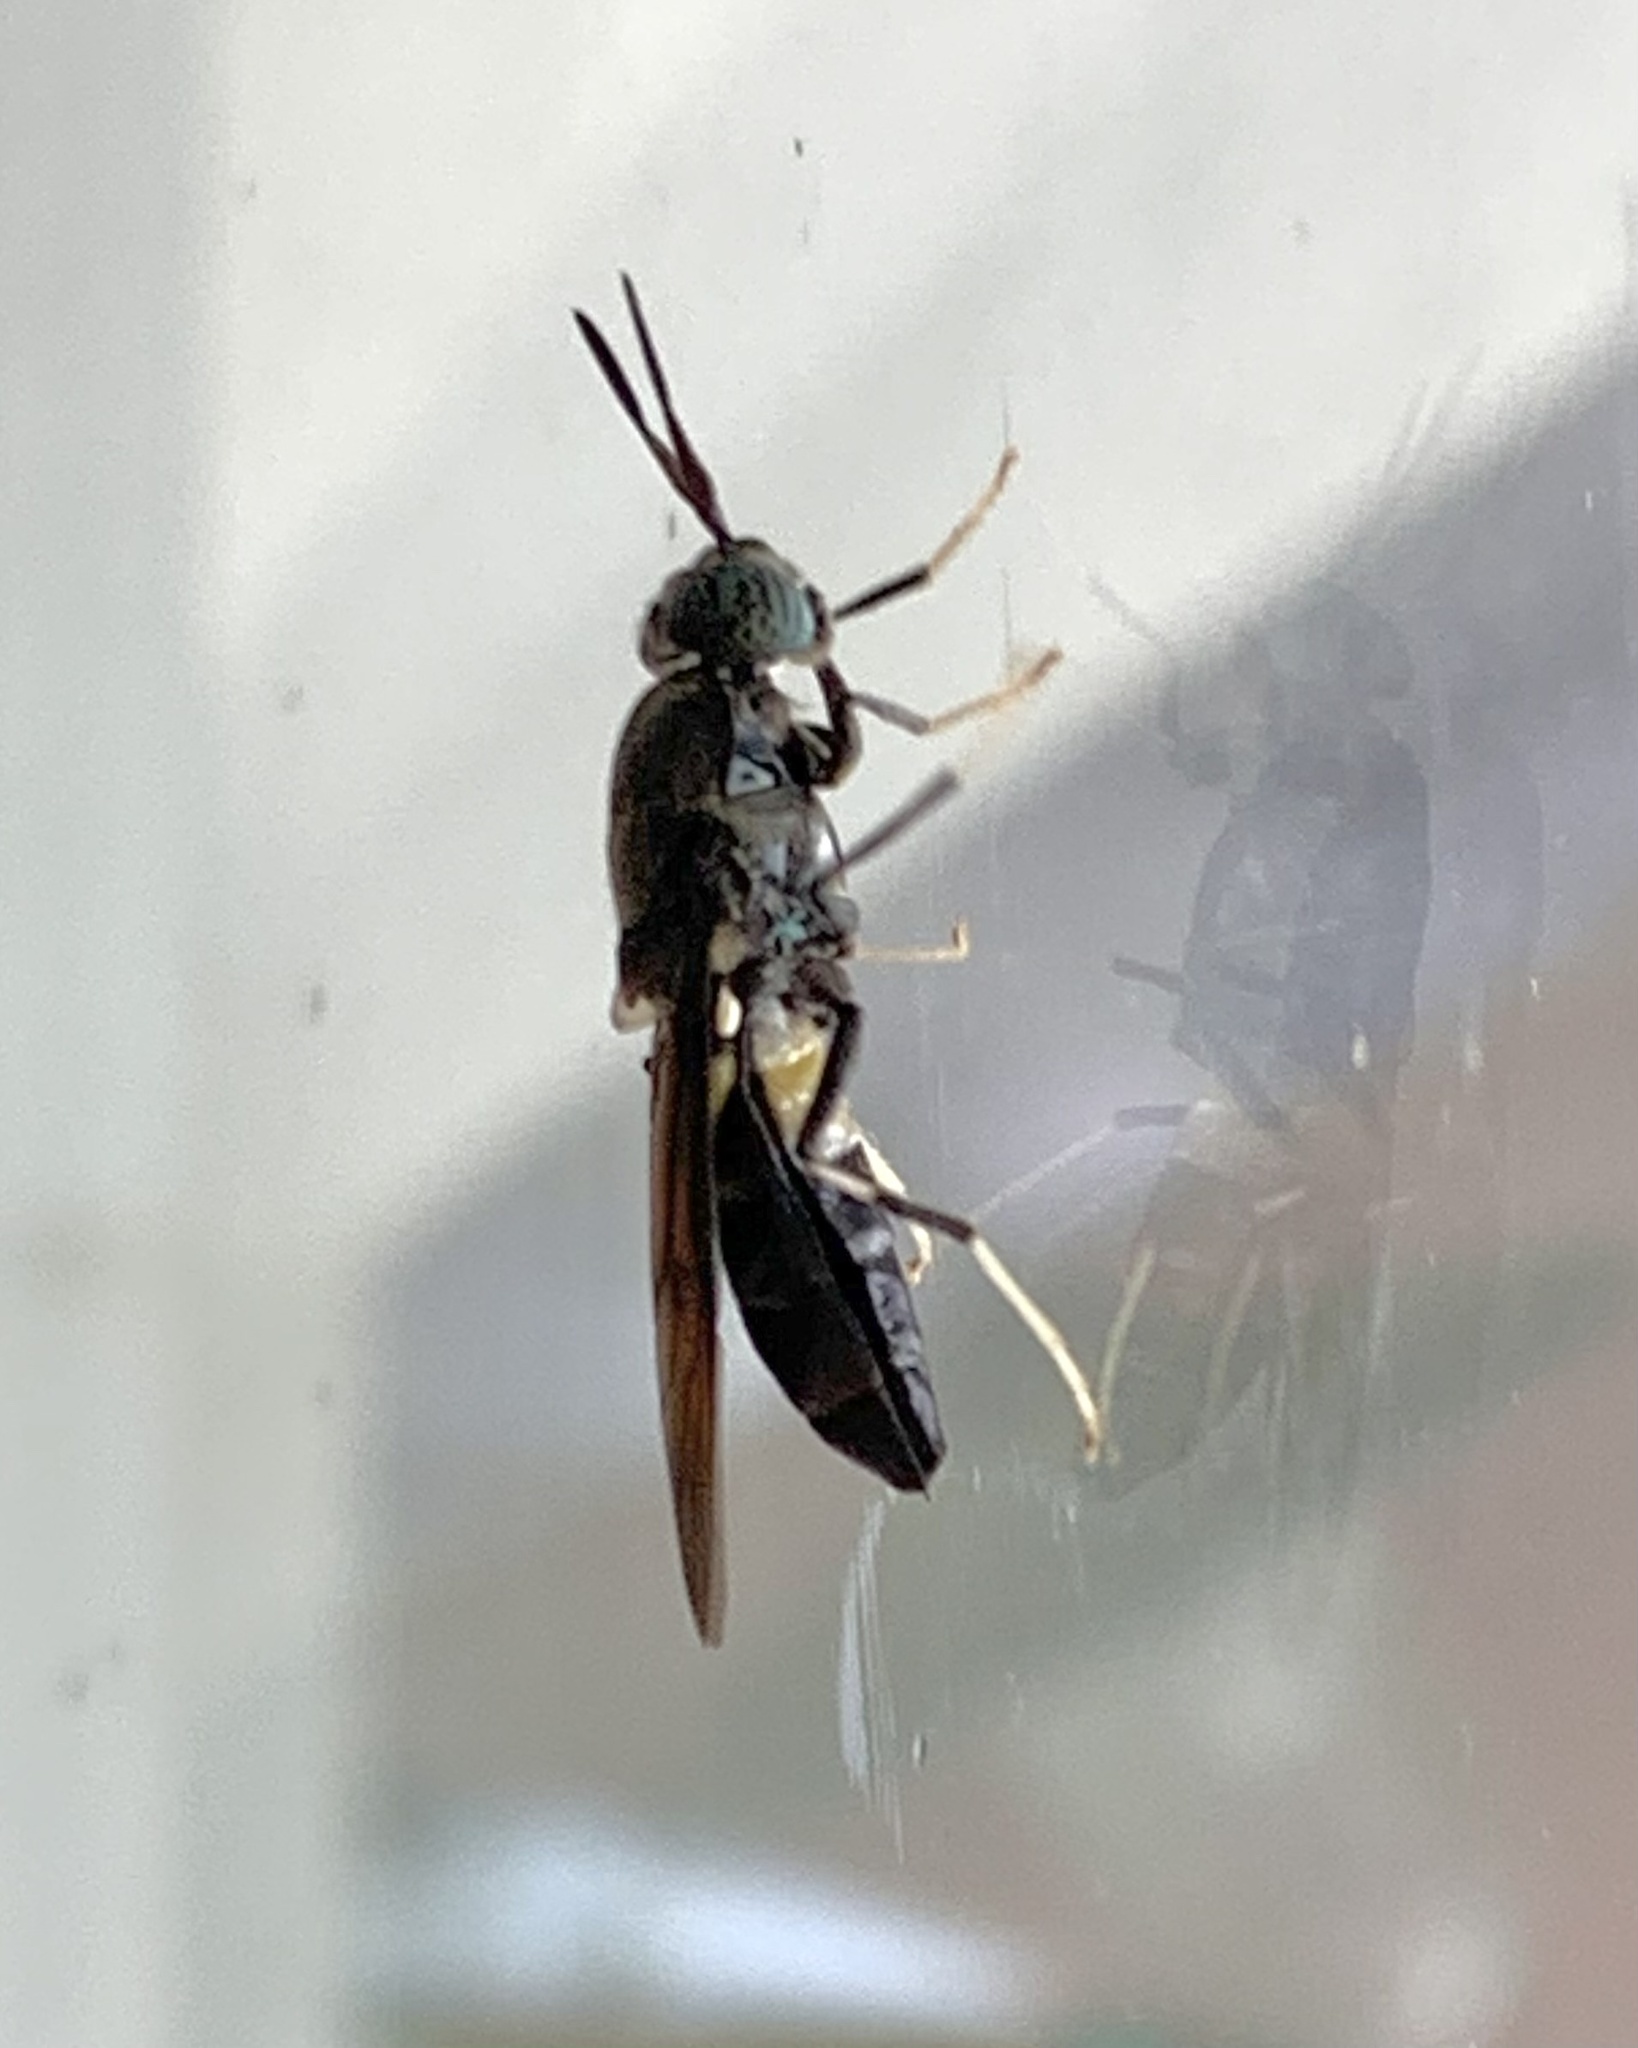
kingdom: Animalia
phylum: Arthropoda
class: Insecta
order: Diptera
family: Stratiomyidae
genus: Hermetia
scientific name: Hermetia illucens
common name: Black soldier fly
